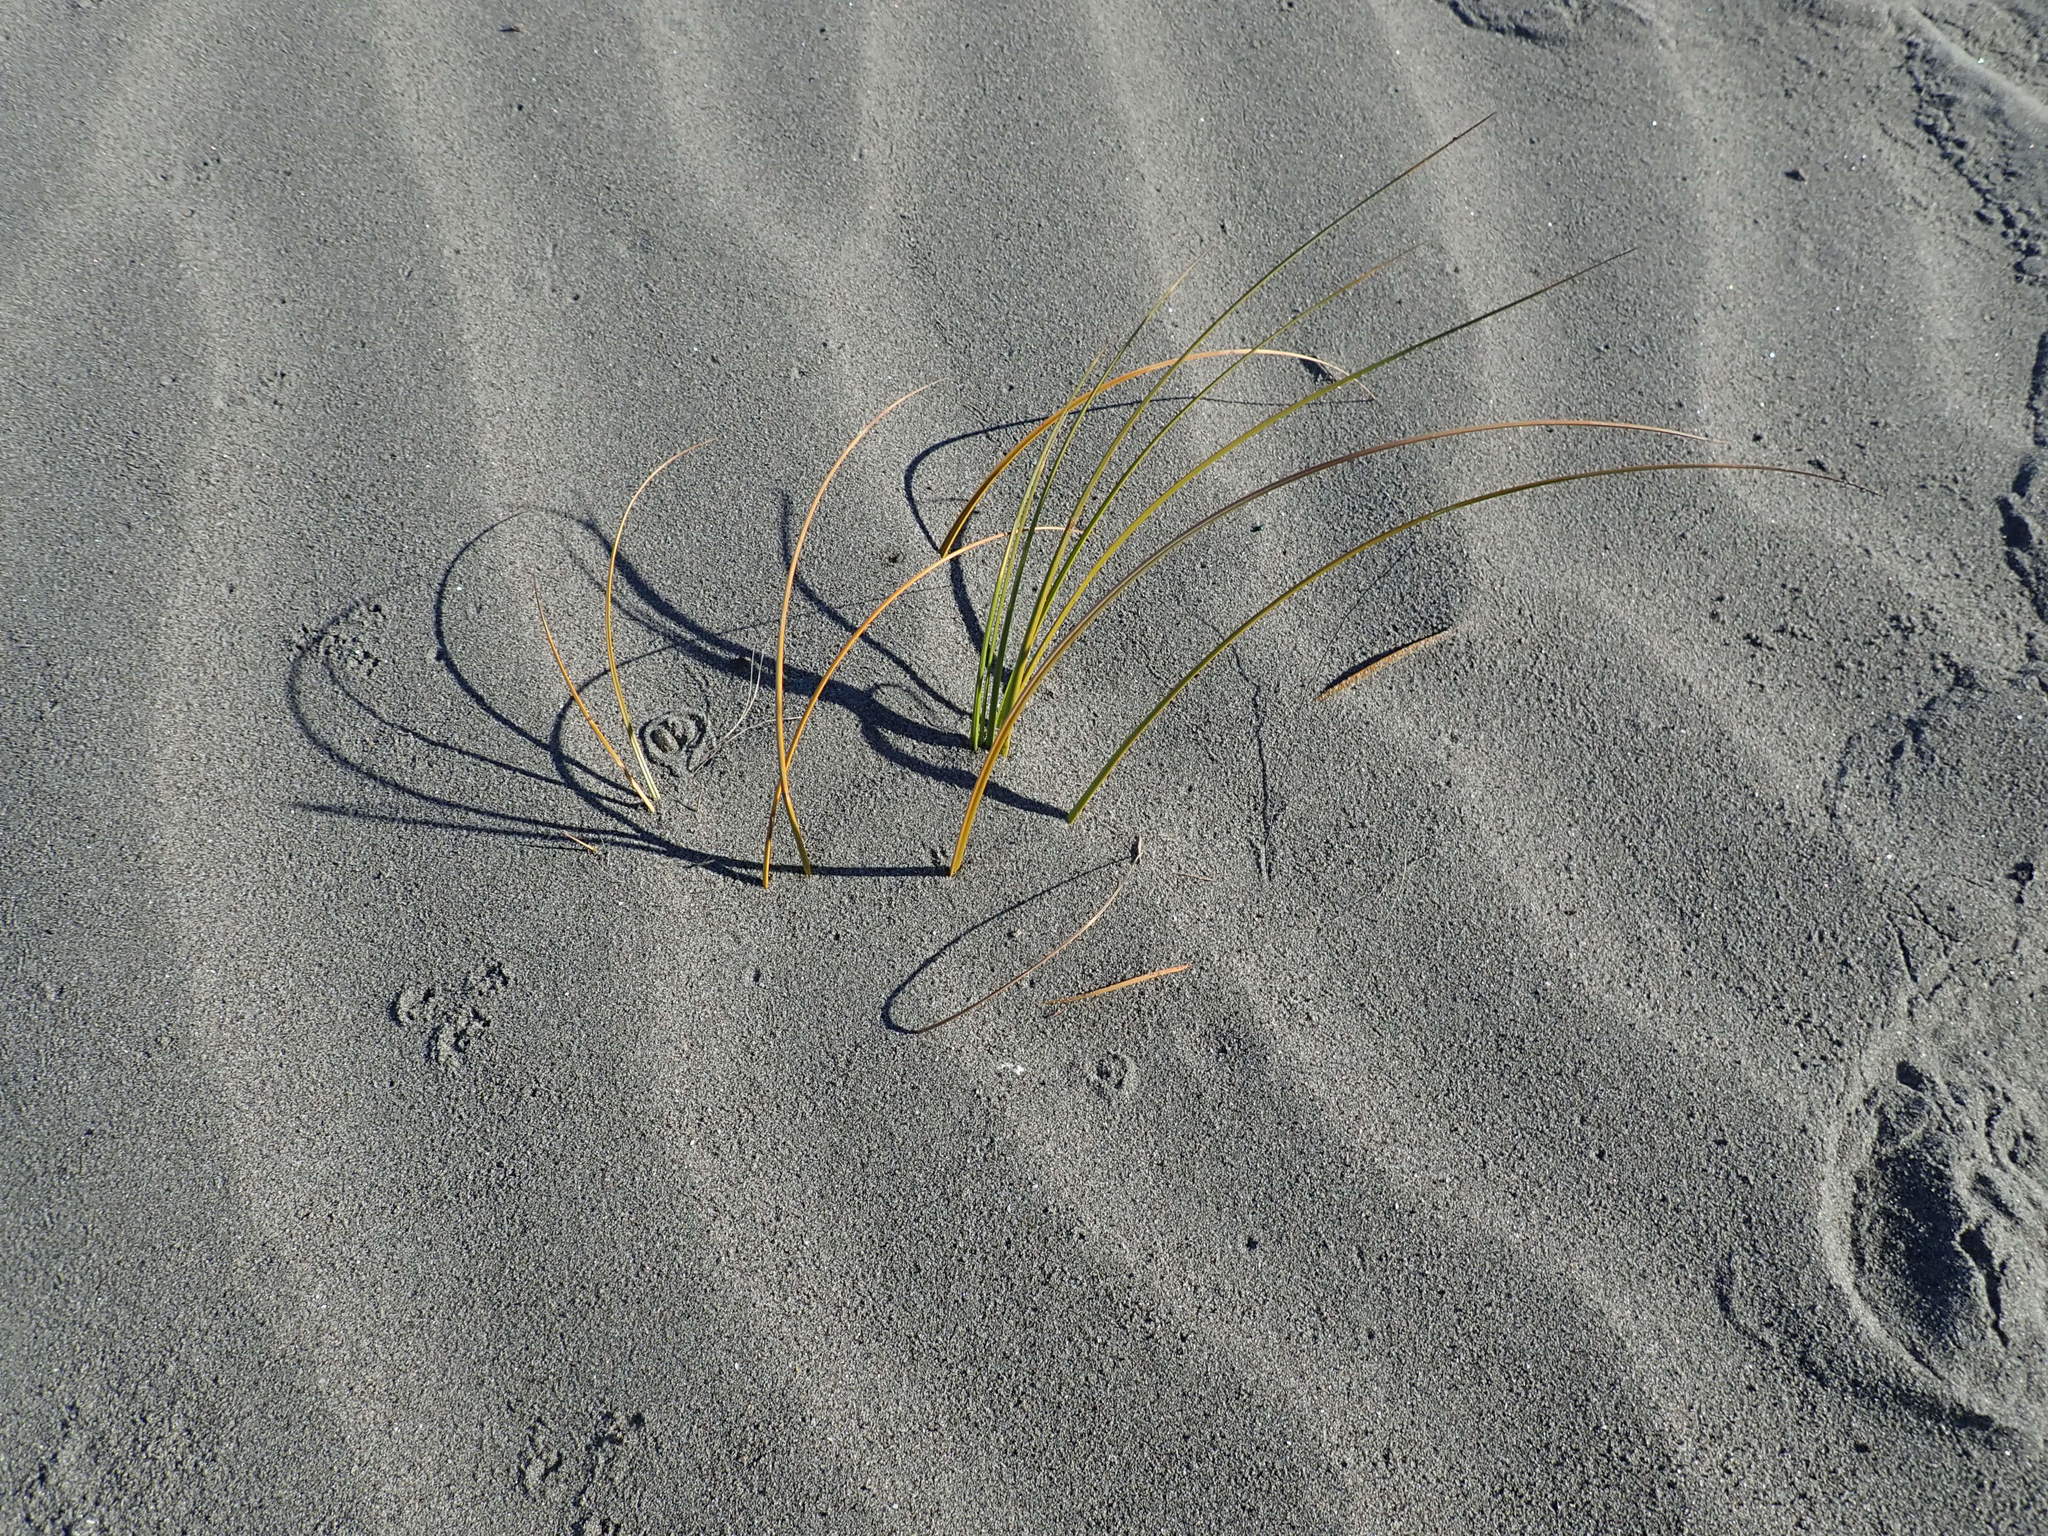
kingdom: Plantae
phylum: Tracheophyta
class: Liliopsida
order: Poales
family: Cyperaceae
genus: Ficinia
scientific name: Ficinia spiralis
